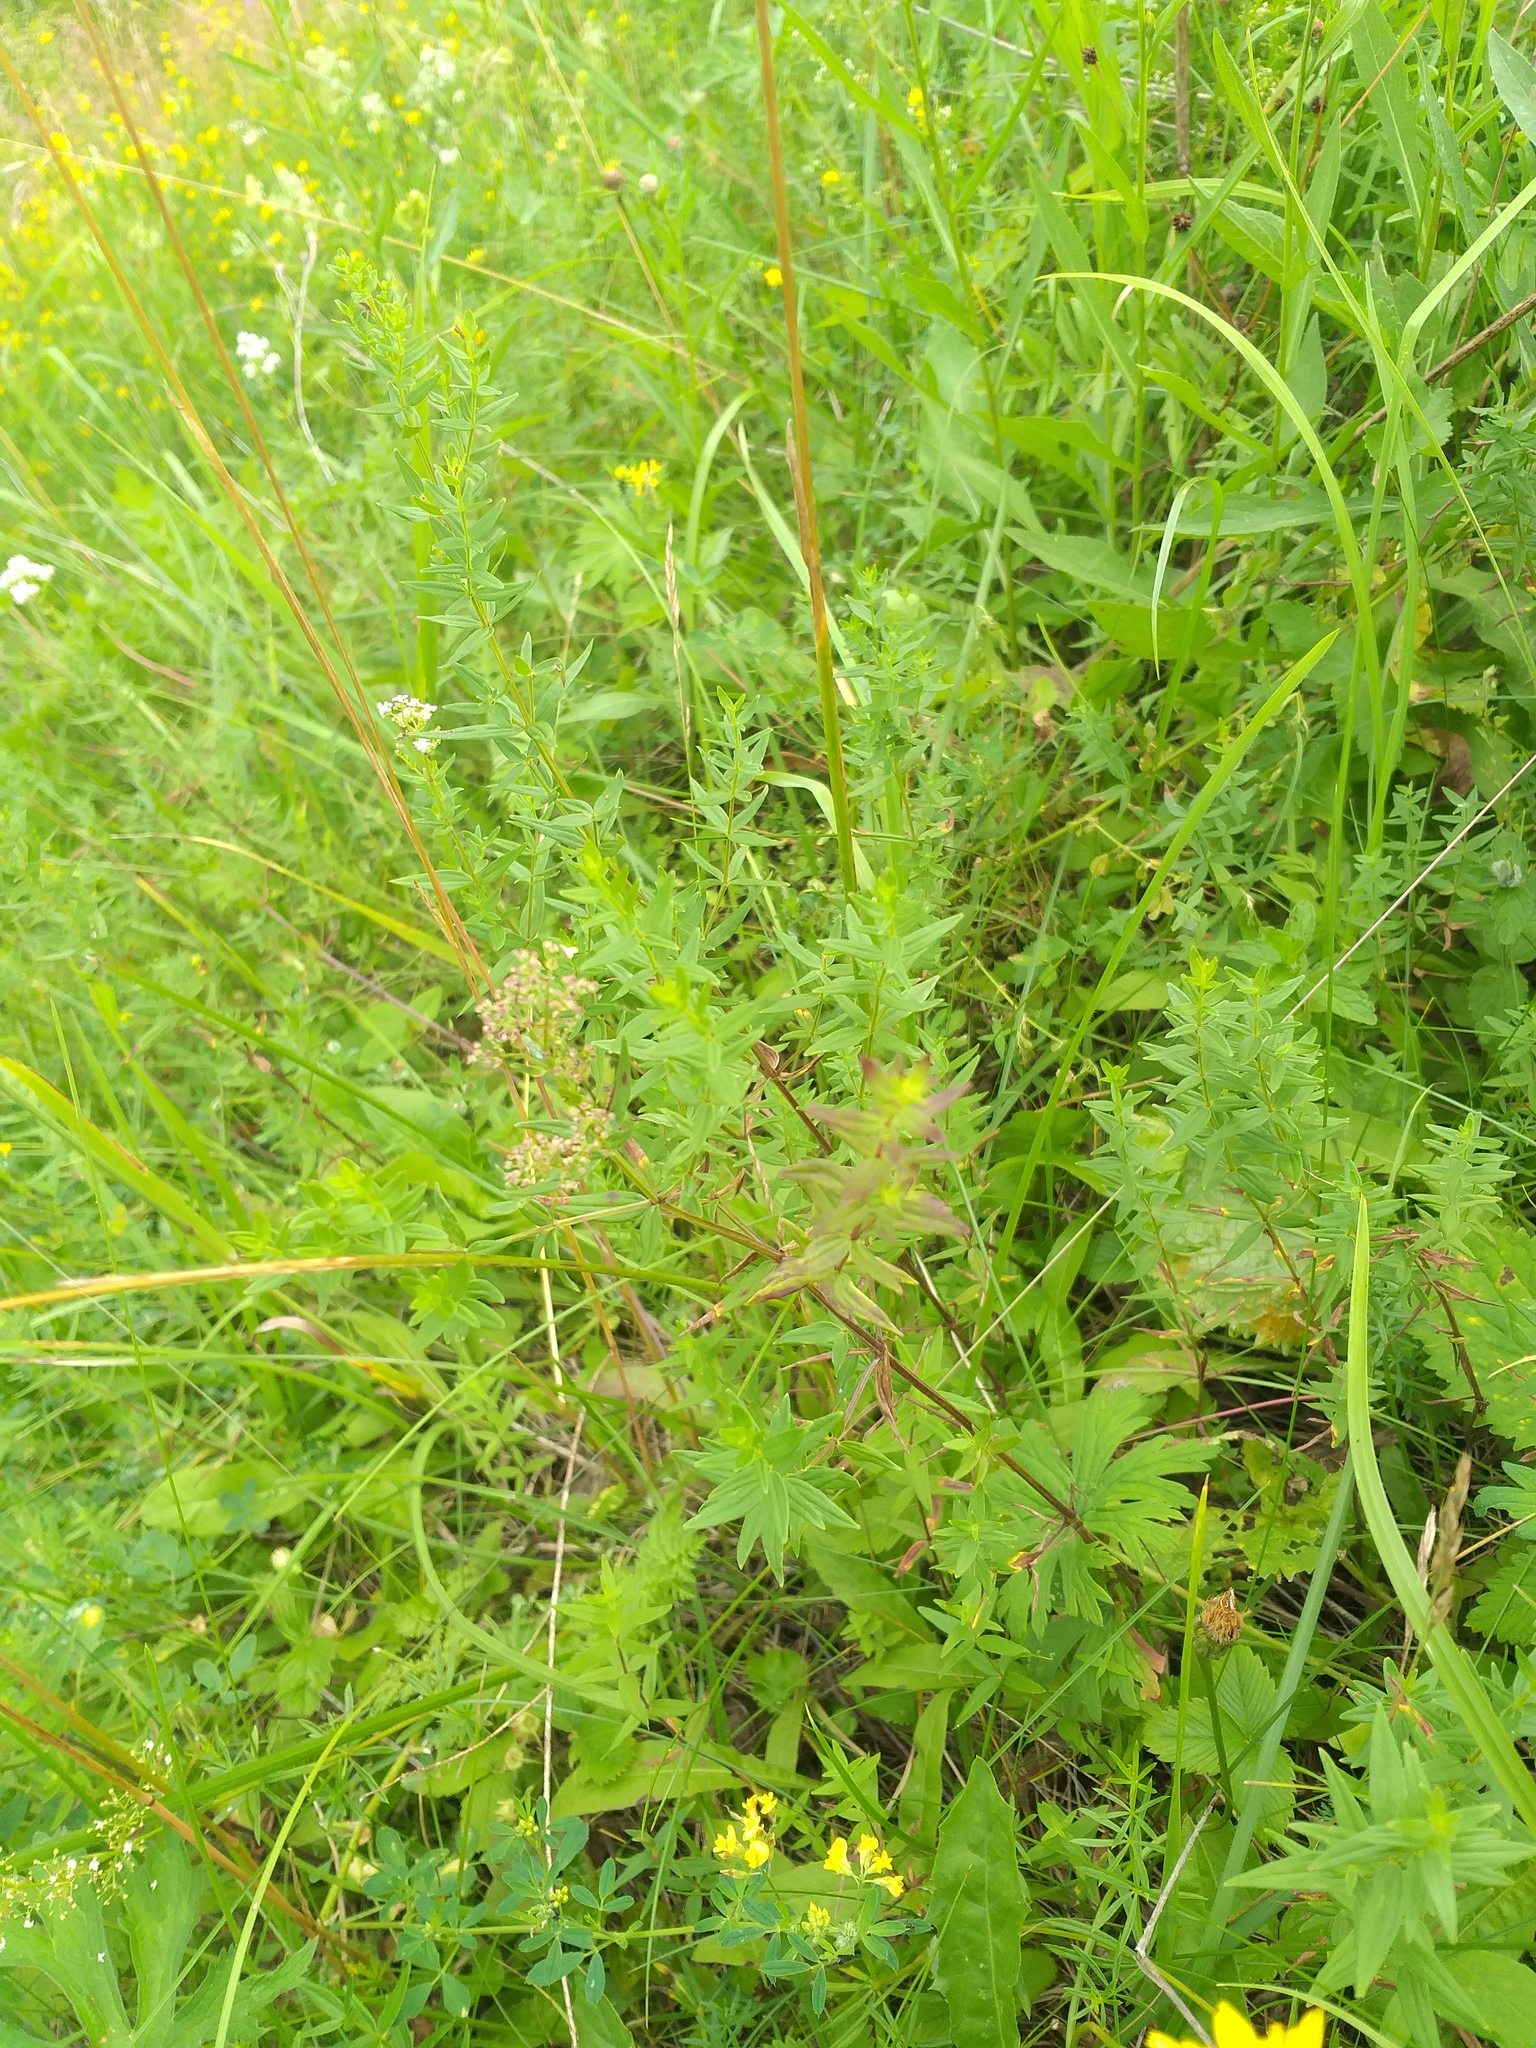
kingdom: Plantae
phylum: Tracheophyta
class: Magnoliopsida
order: Gentianales
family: Rubiaceae
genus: Galium
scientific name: Galium boreale
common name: Northern bedstraw
